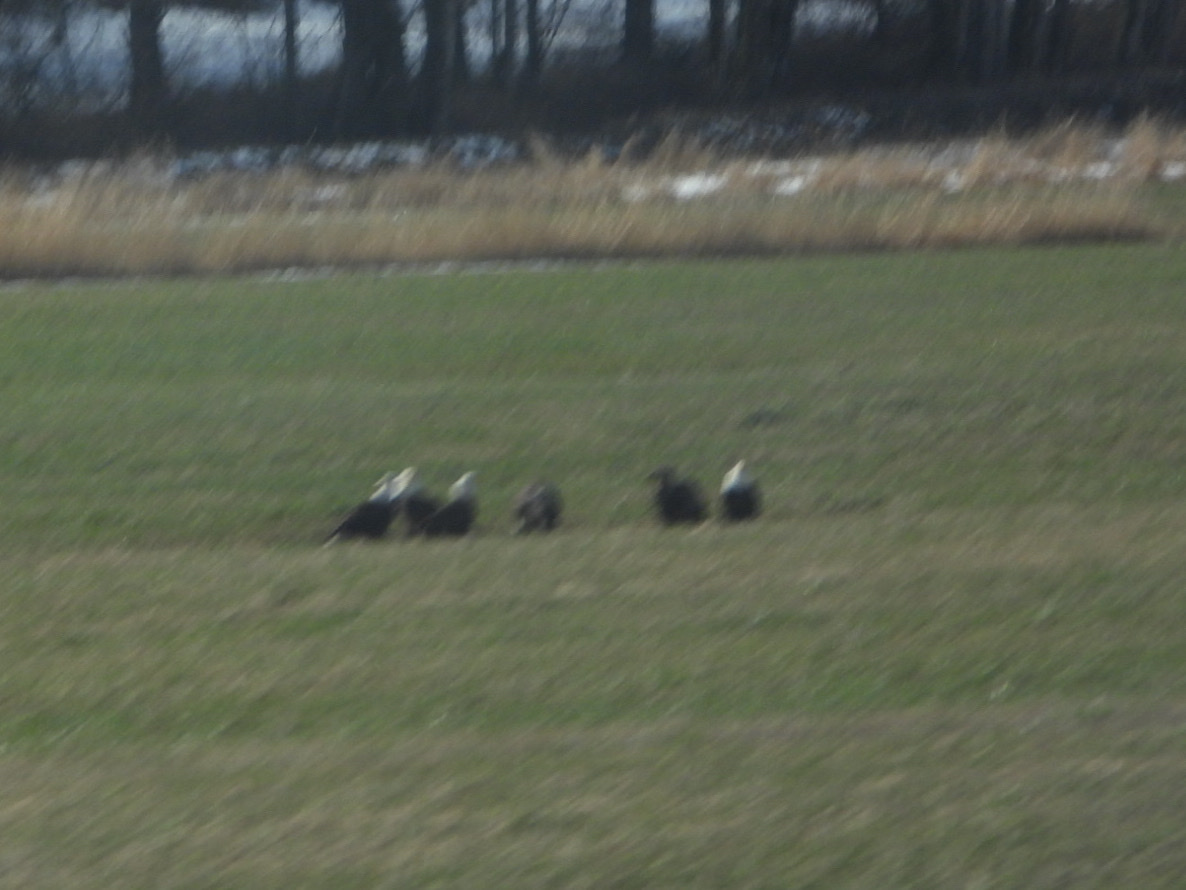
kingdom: Animalia
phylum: Chordata
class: Aves
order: Accipitriformes
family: Accipitridae
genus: Haliaeetus
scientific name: Haliaeetus leucocephalus
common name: Bald eagle
